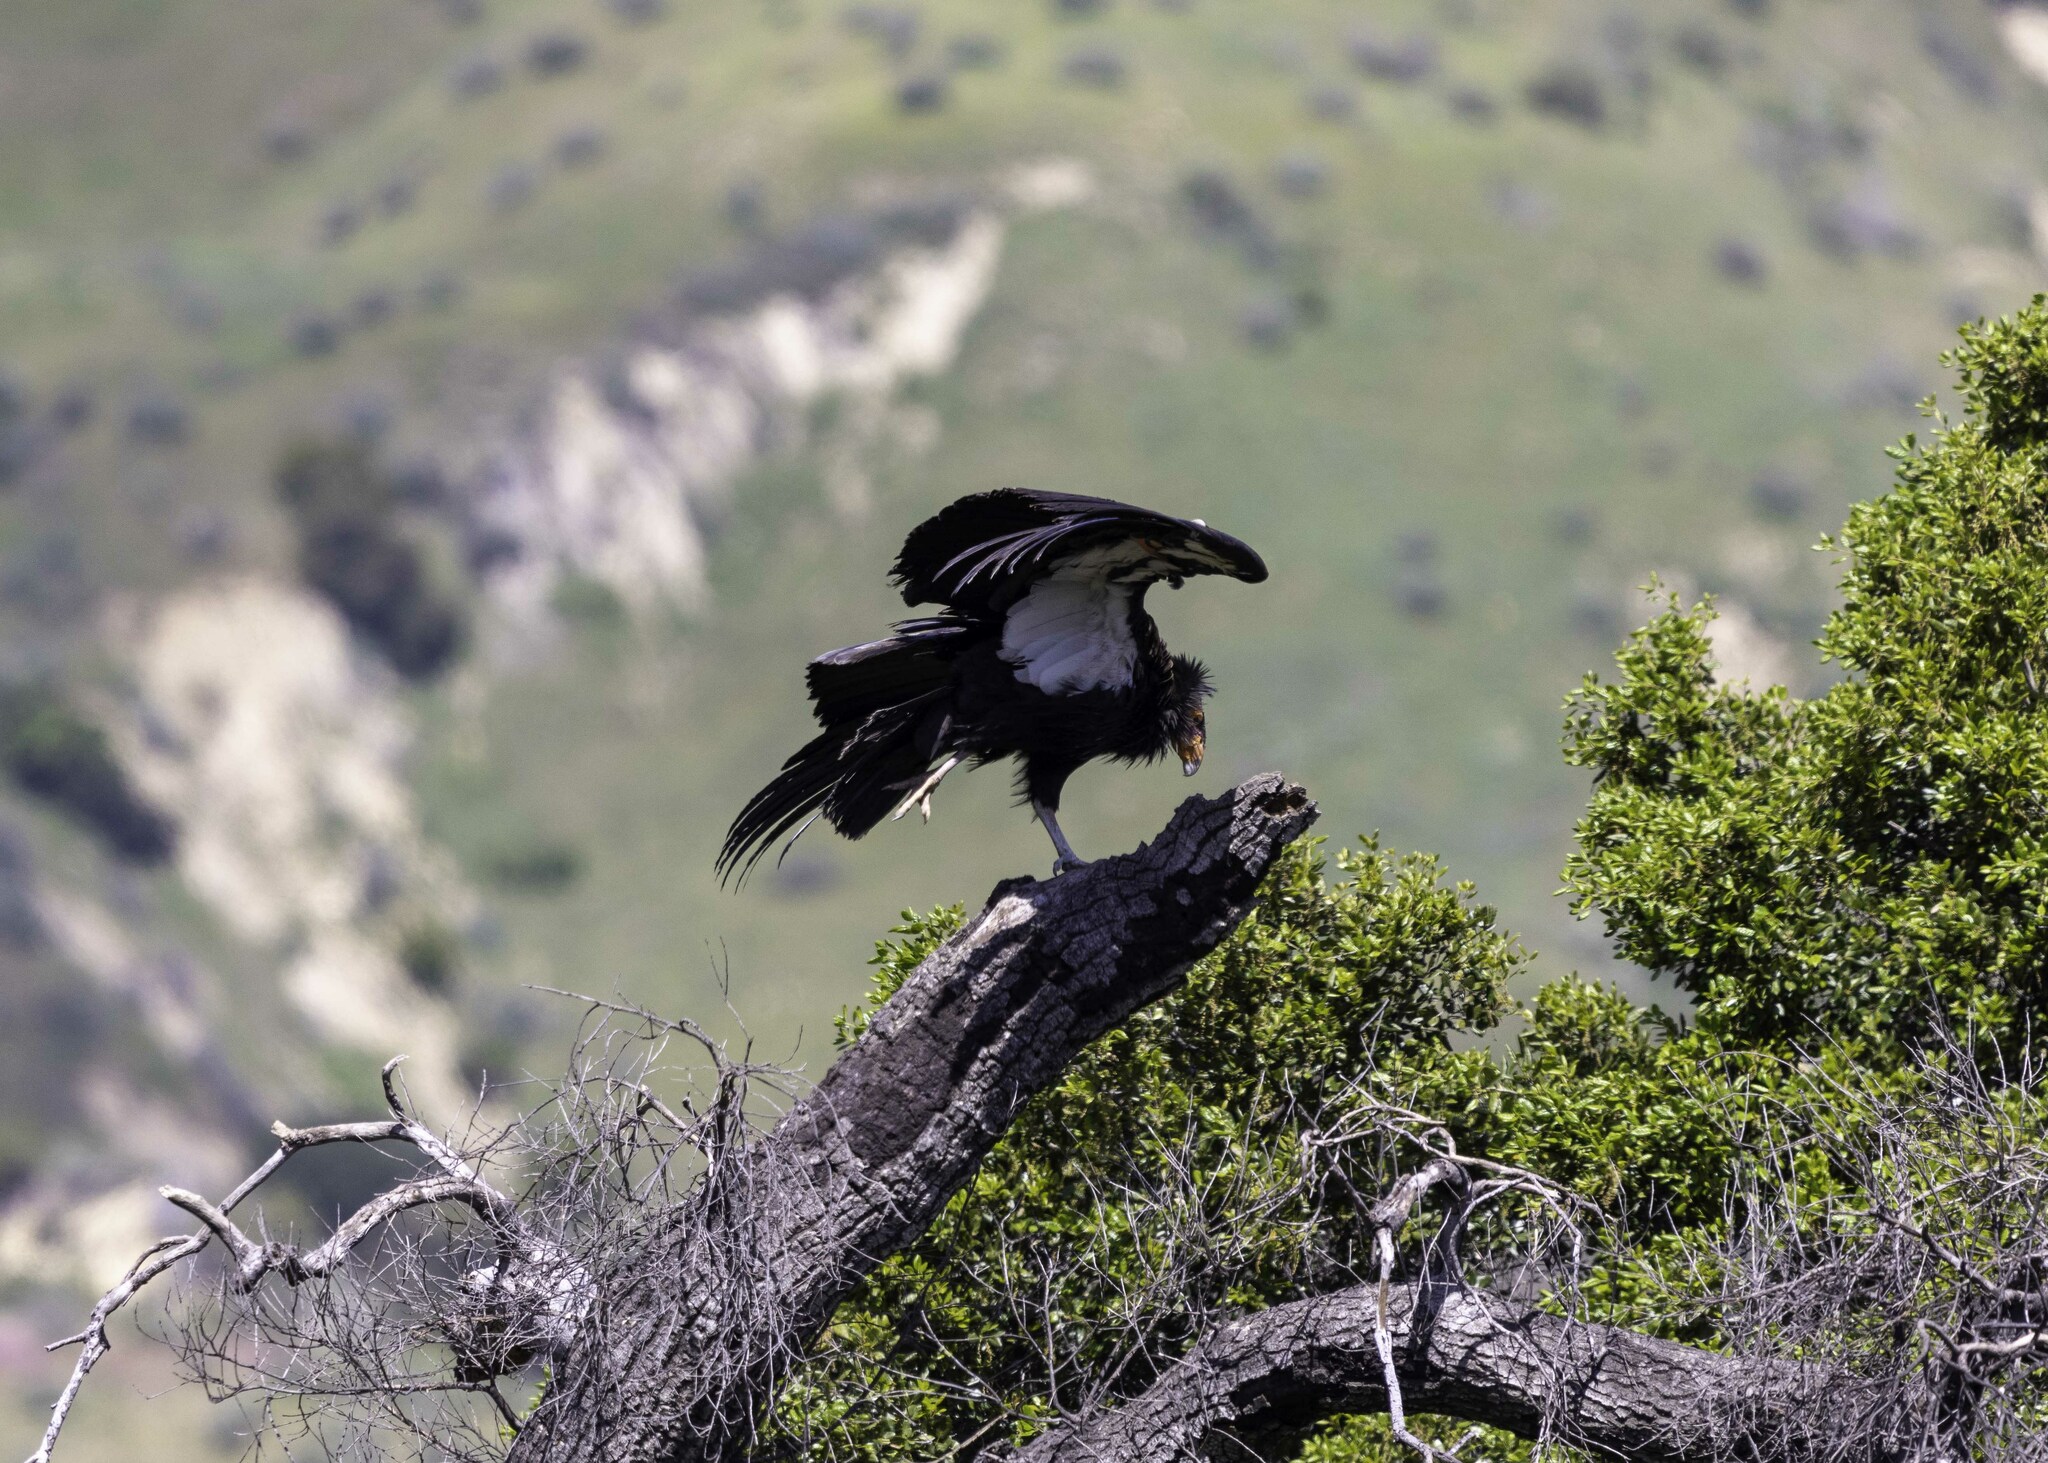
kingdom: Animalia
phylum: Chordata
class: Aves
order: Accipitriformes
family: Cathartidae
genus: Gymnogyps
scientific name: Gymnogyps californianus
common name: California condor
